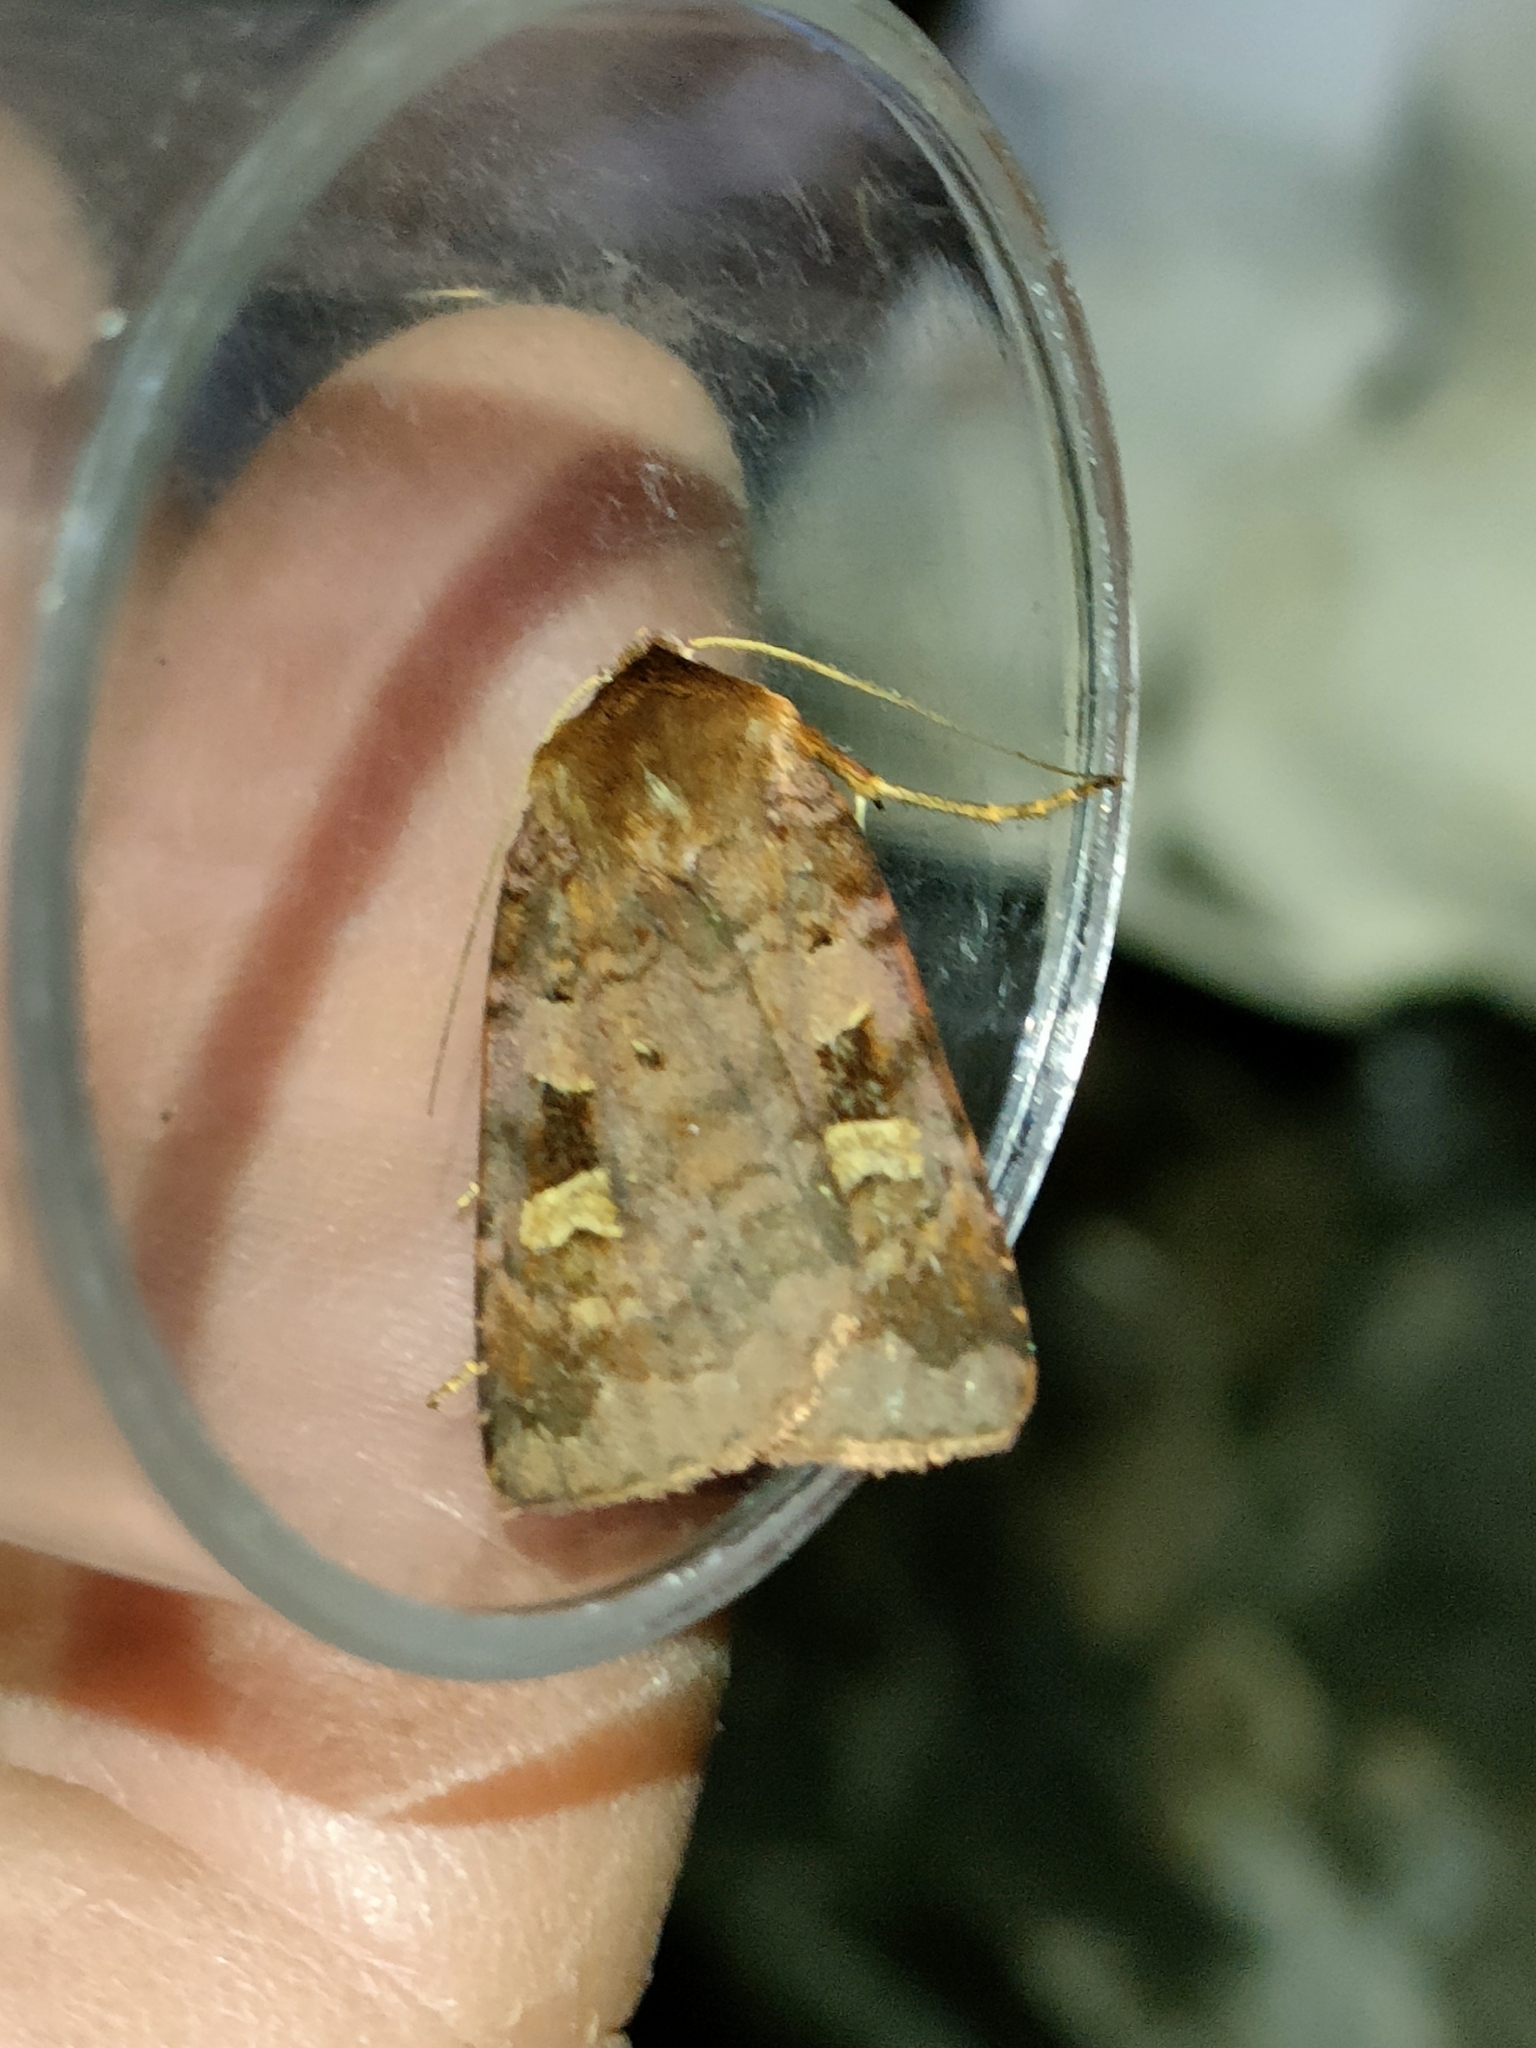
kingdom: Animalia
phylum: Arthropoda
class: Insecta
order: Lepidoptera
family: Noctuidae
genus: Diarsia
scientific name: Diarsia brunnea
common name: Purple clay
